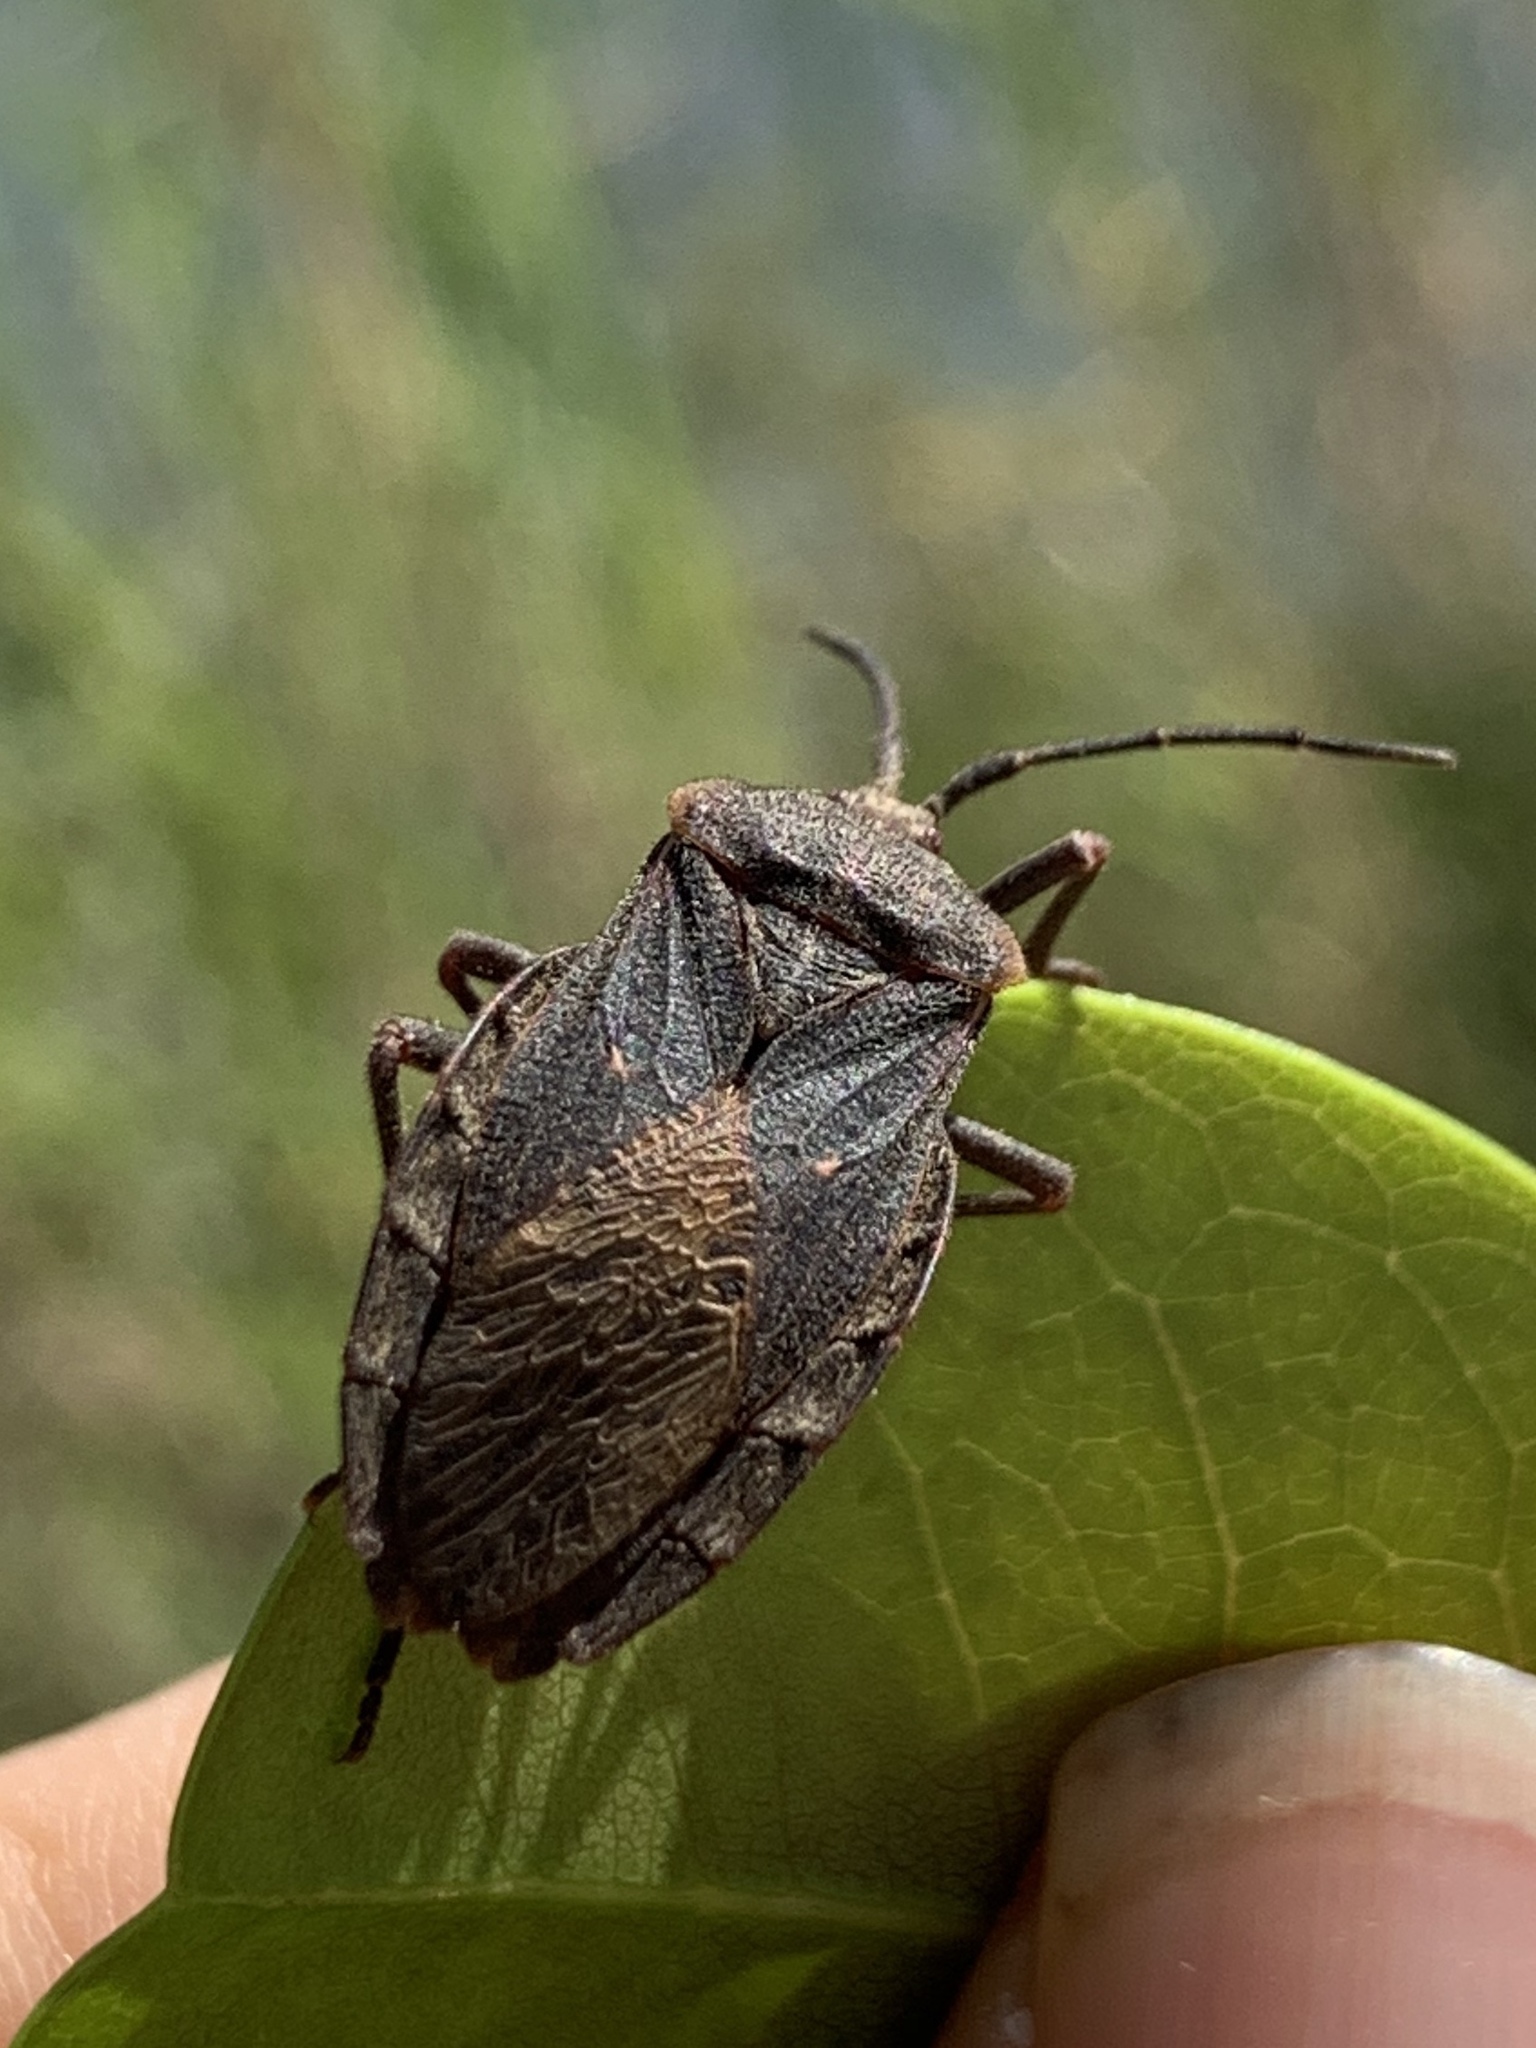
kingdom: Animalia
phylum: Arthropoda
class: Insecta
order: Hemiptera
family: Coreidae
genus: Spartocera
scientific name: Spartocera batatas
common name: Giant sweetpotato bug
